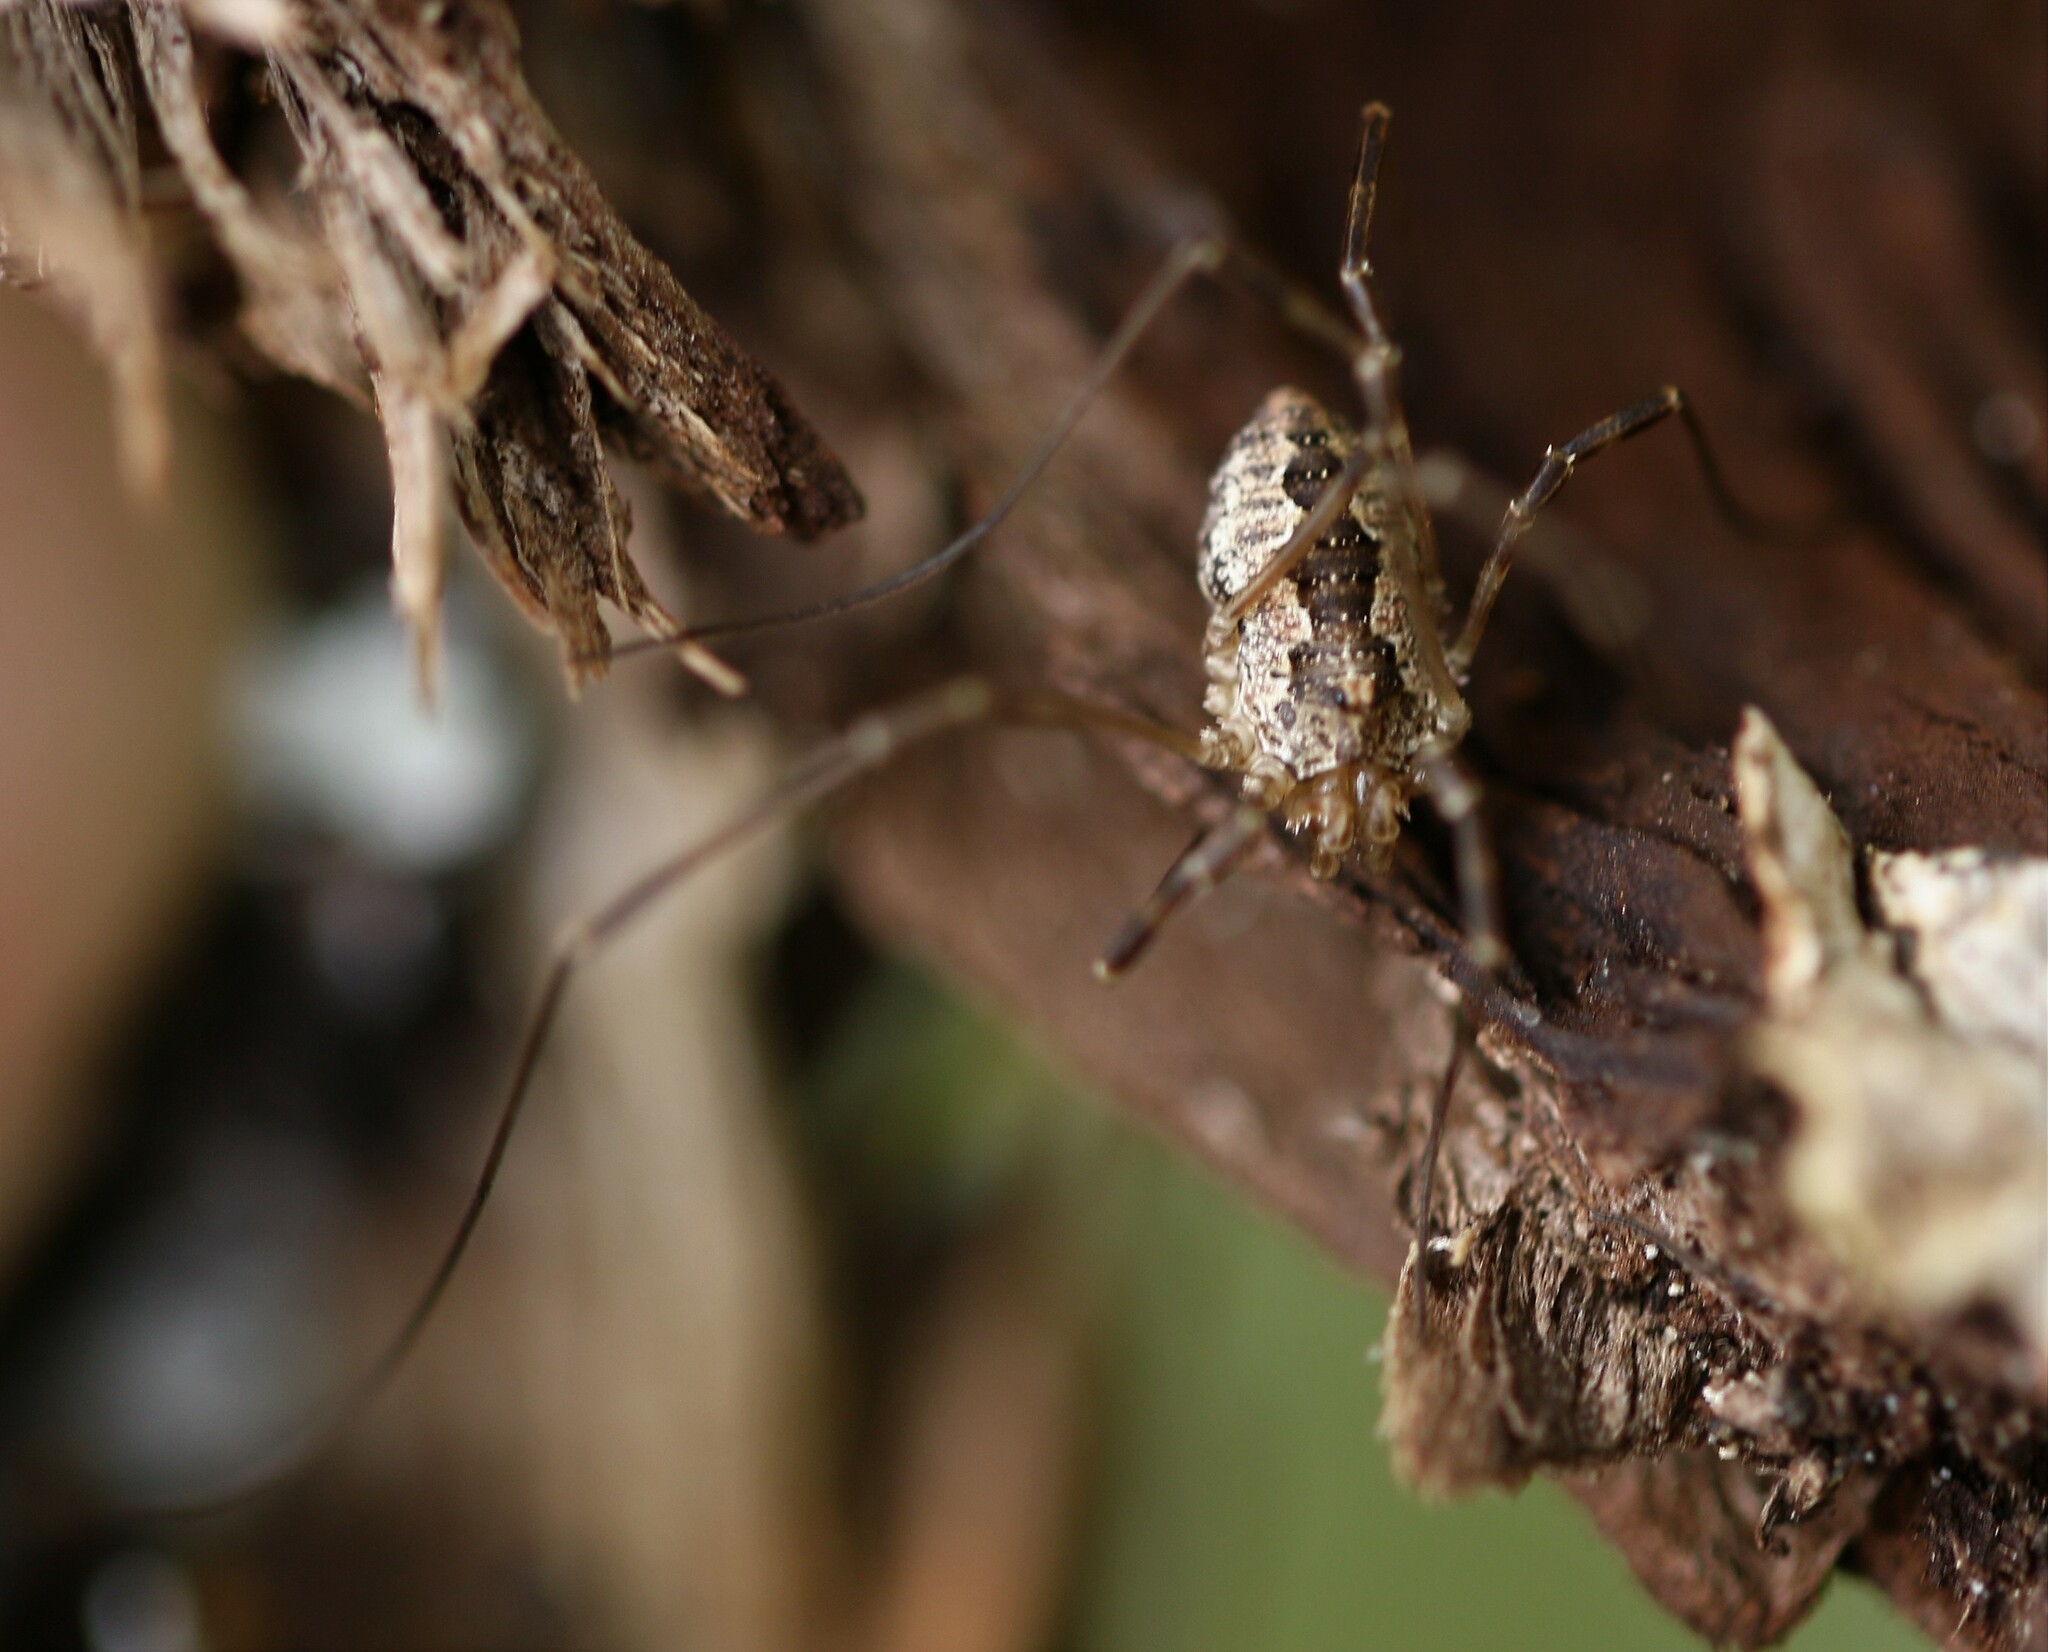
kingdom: Animalia
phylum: Arthropoda
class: Arachnida
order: Opiliones
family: Phalangiidae
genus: Odiellus
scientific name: Odiellus pictus
